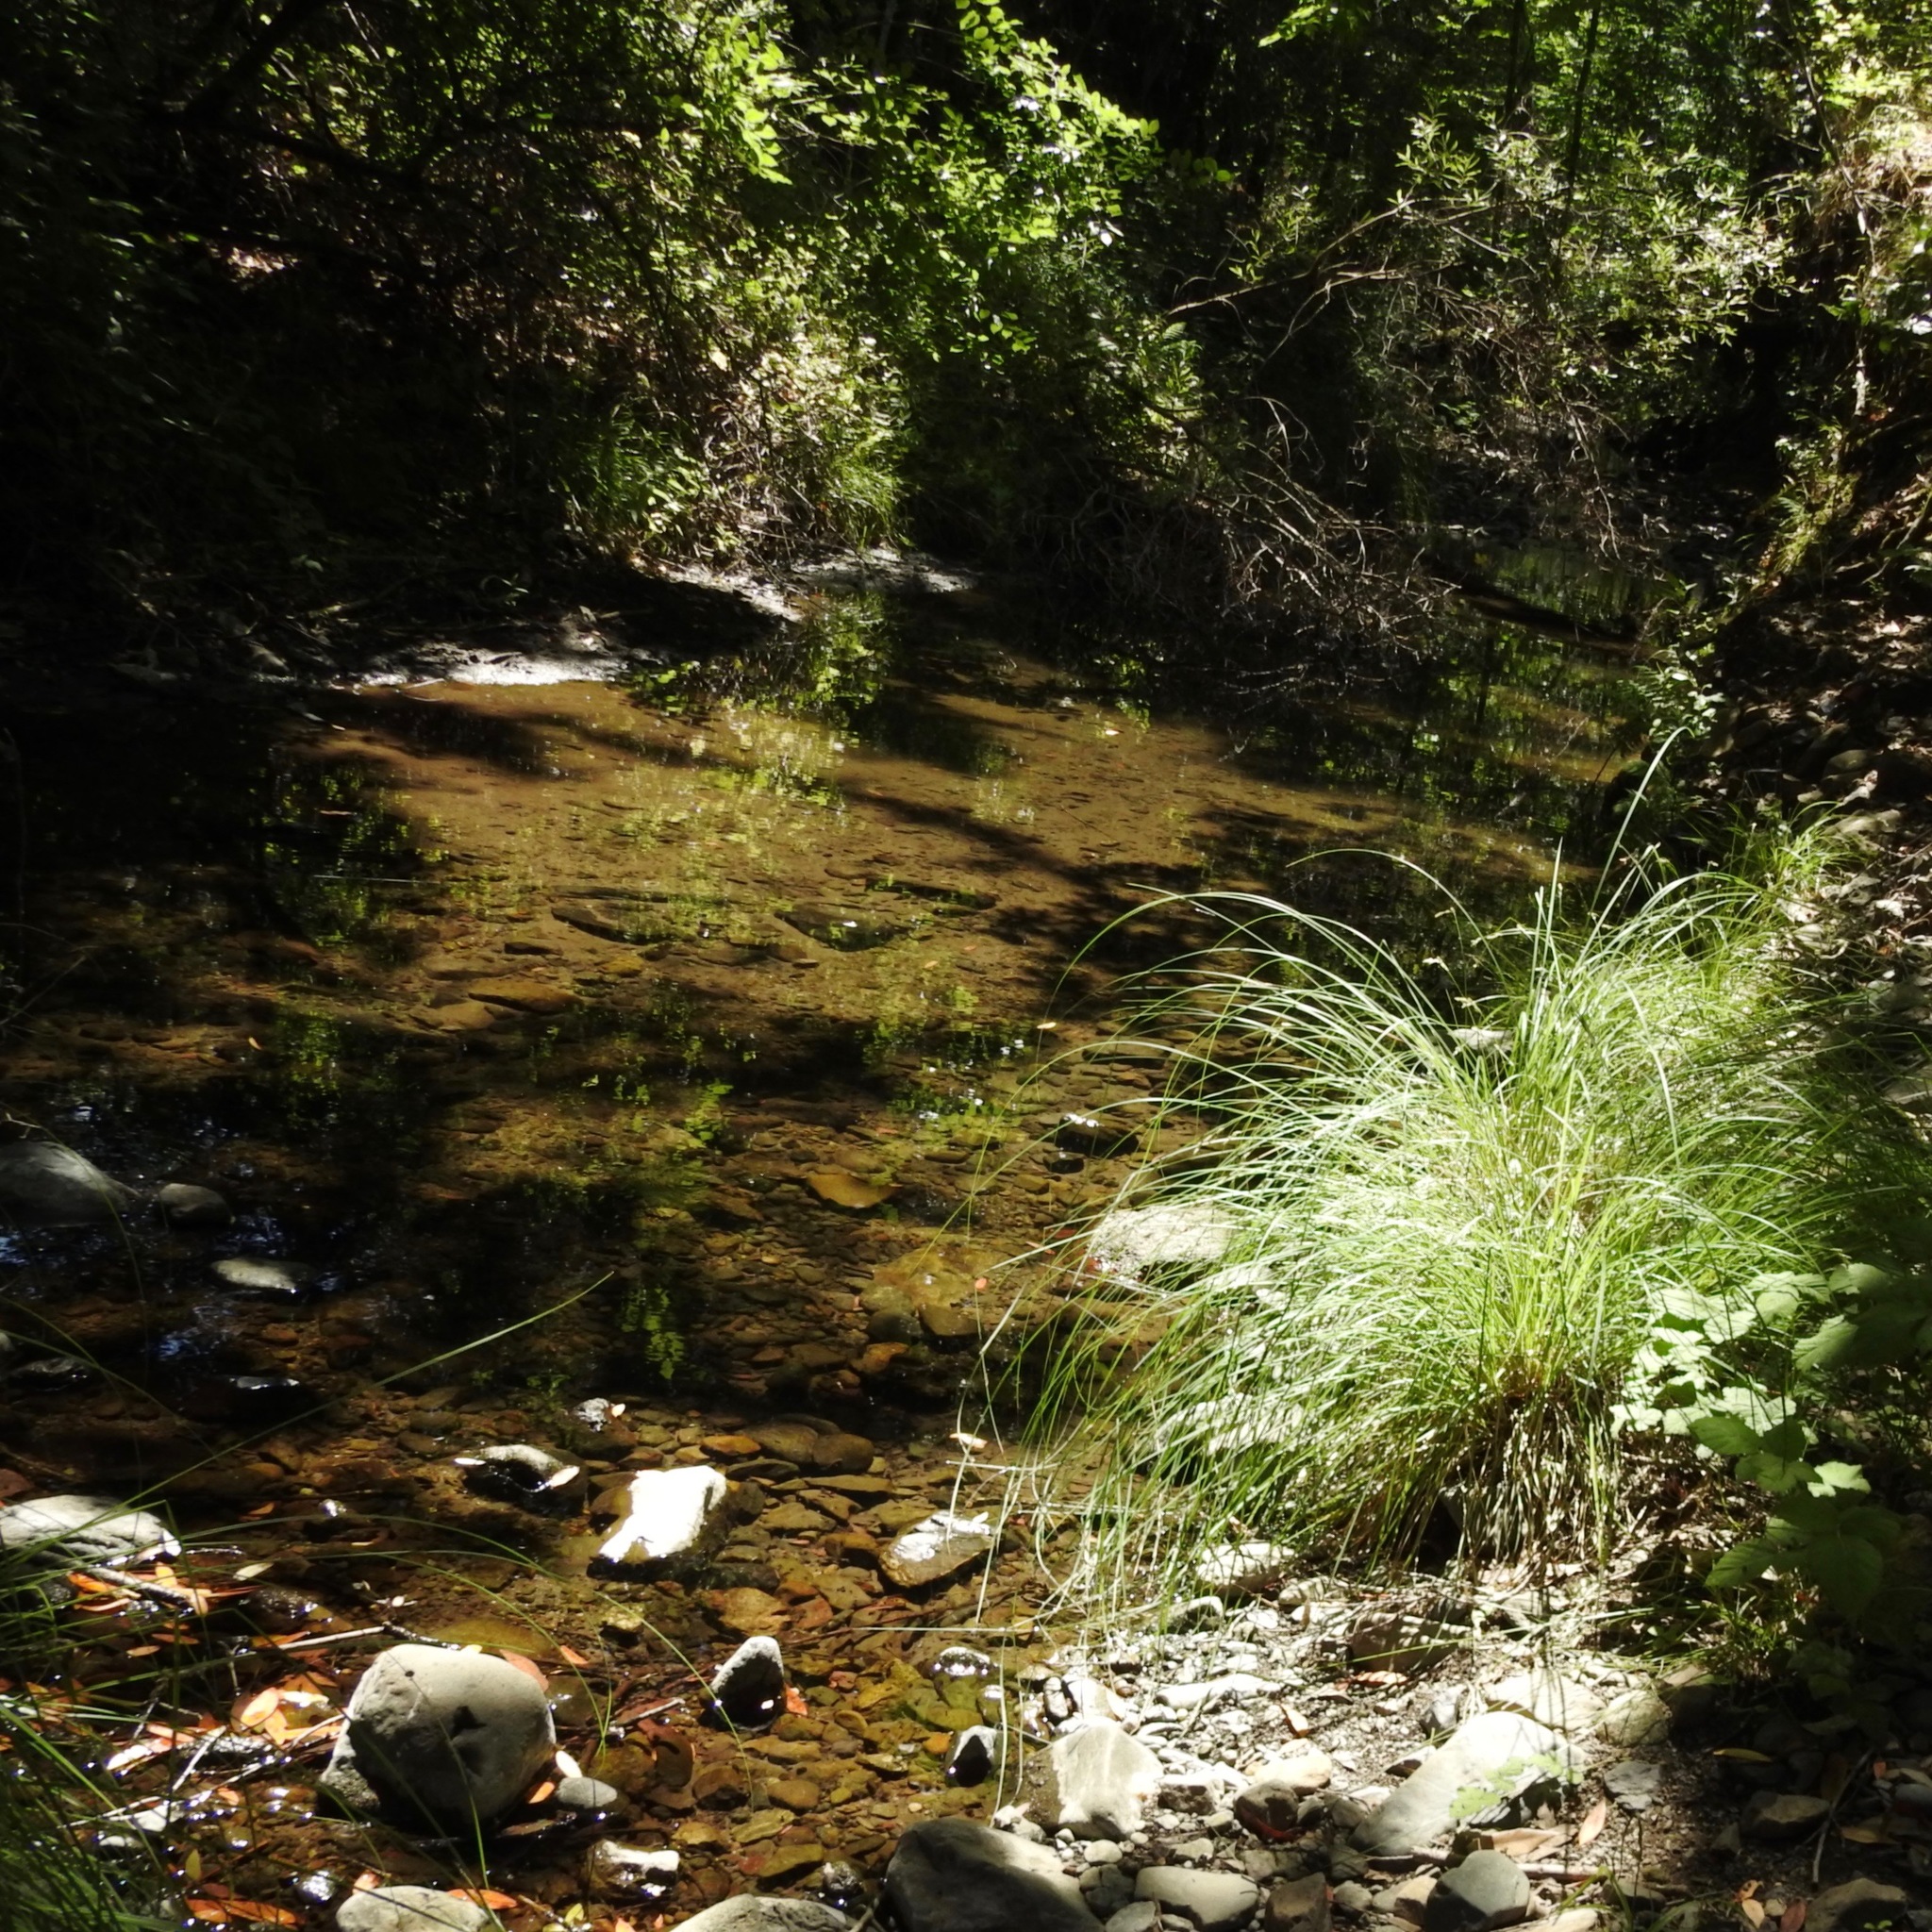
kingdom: Plantae
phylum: Tracheophyta
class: Liliopsida
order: Poales
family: Cyperaceae
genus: Carex
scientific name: Carex nudata
